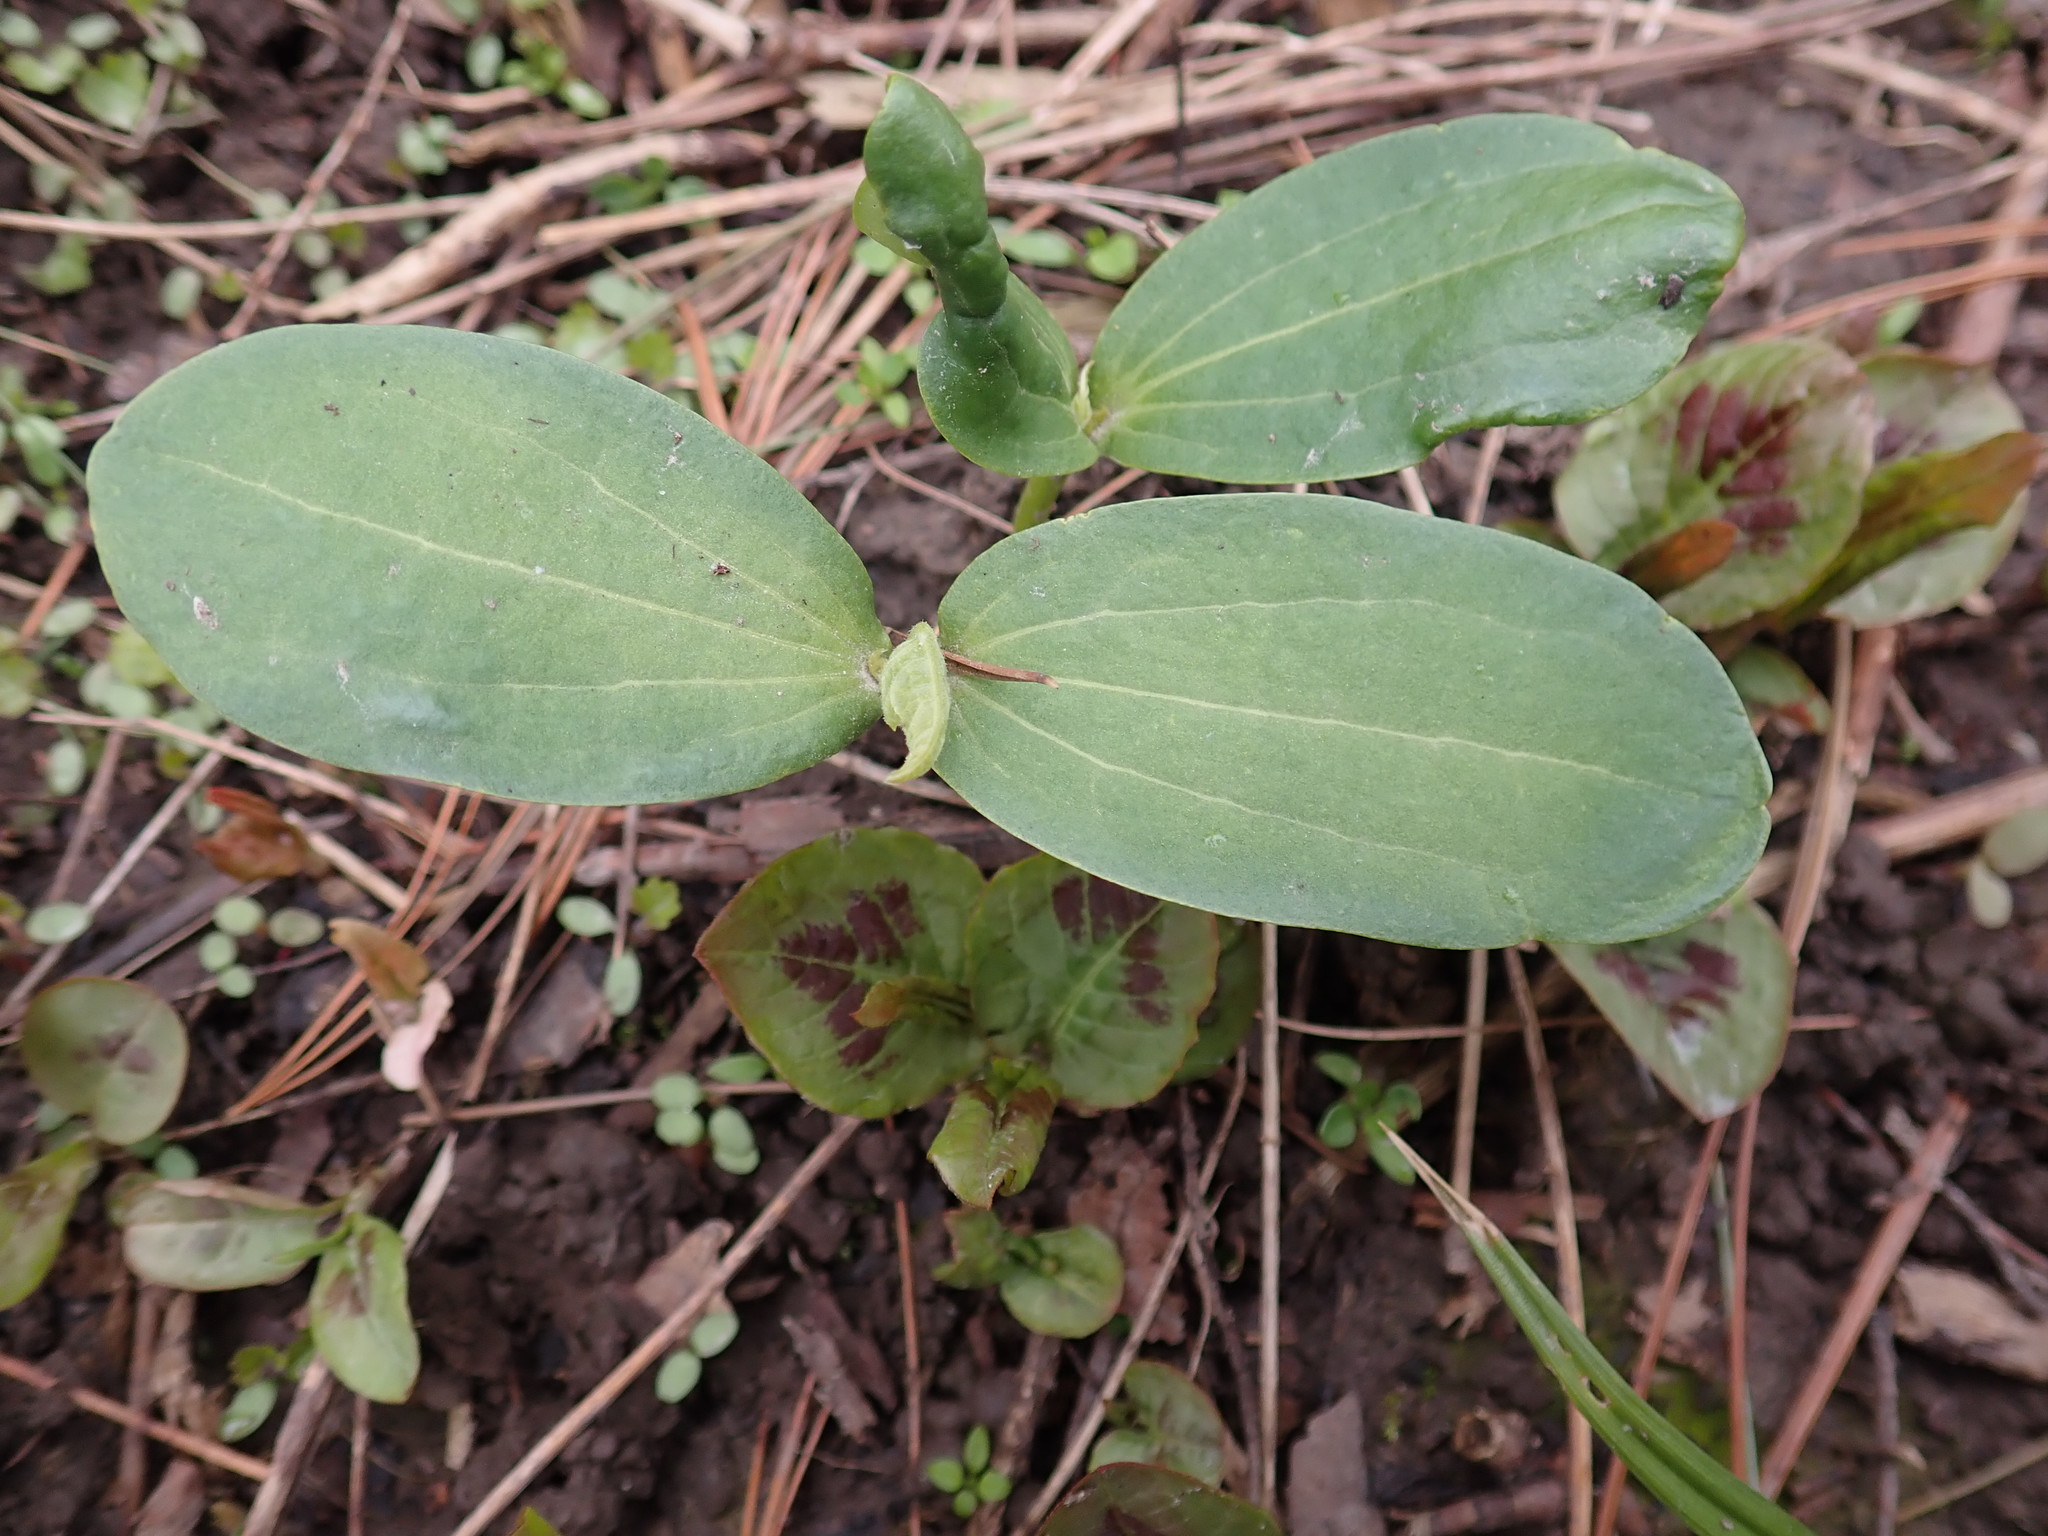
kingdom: Plantae
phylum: Tracheophyta
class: Magnoliopsida
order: Cucurbitales
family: Cucurbitaceae
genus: Echinocystis
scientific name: Echinocystis lobata
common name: Wild cucumber
